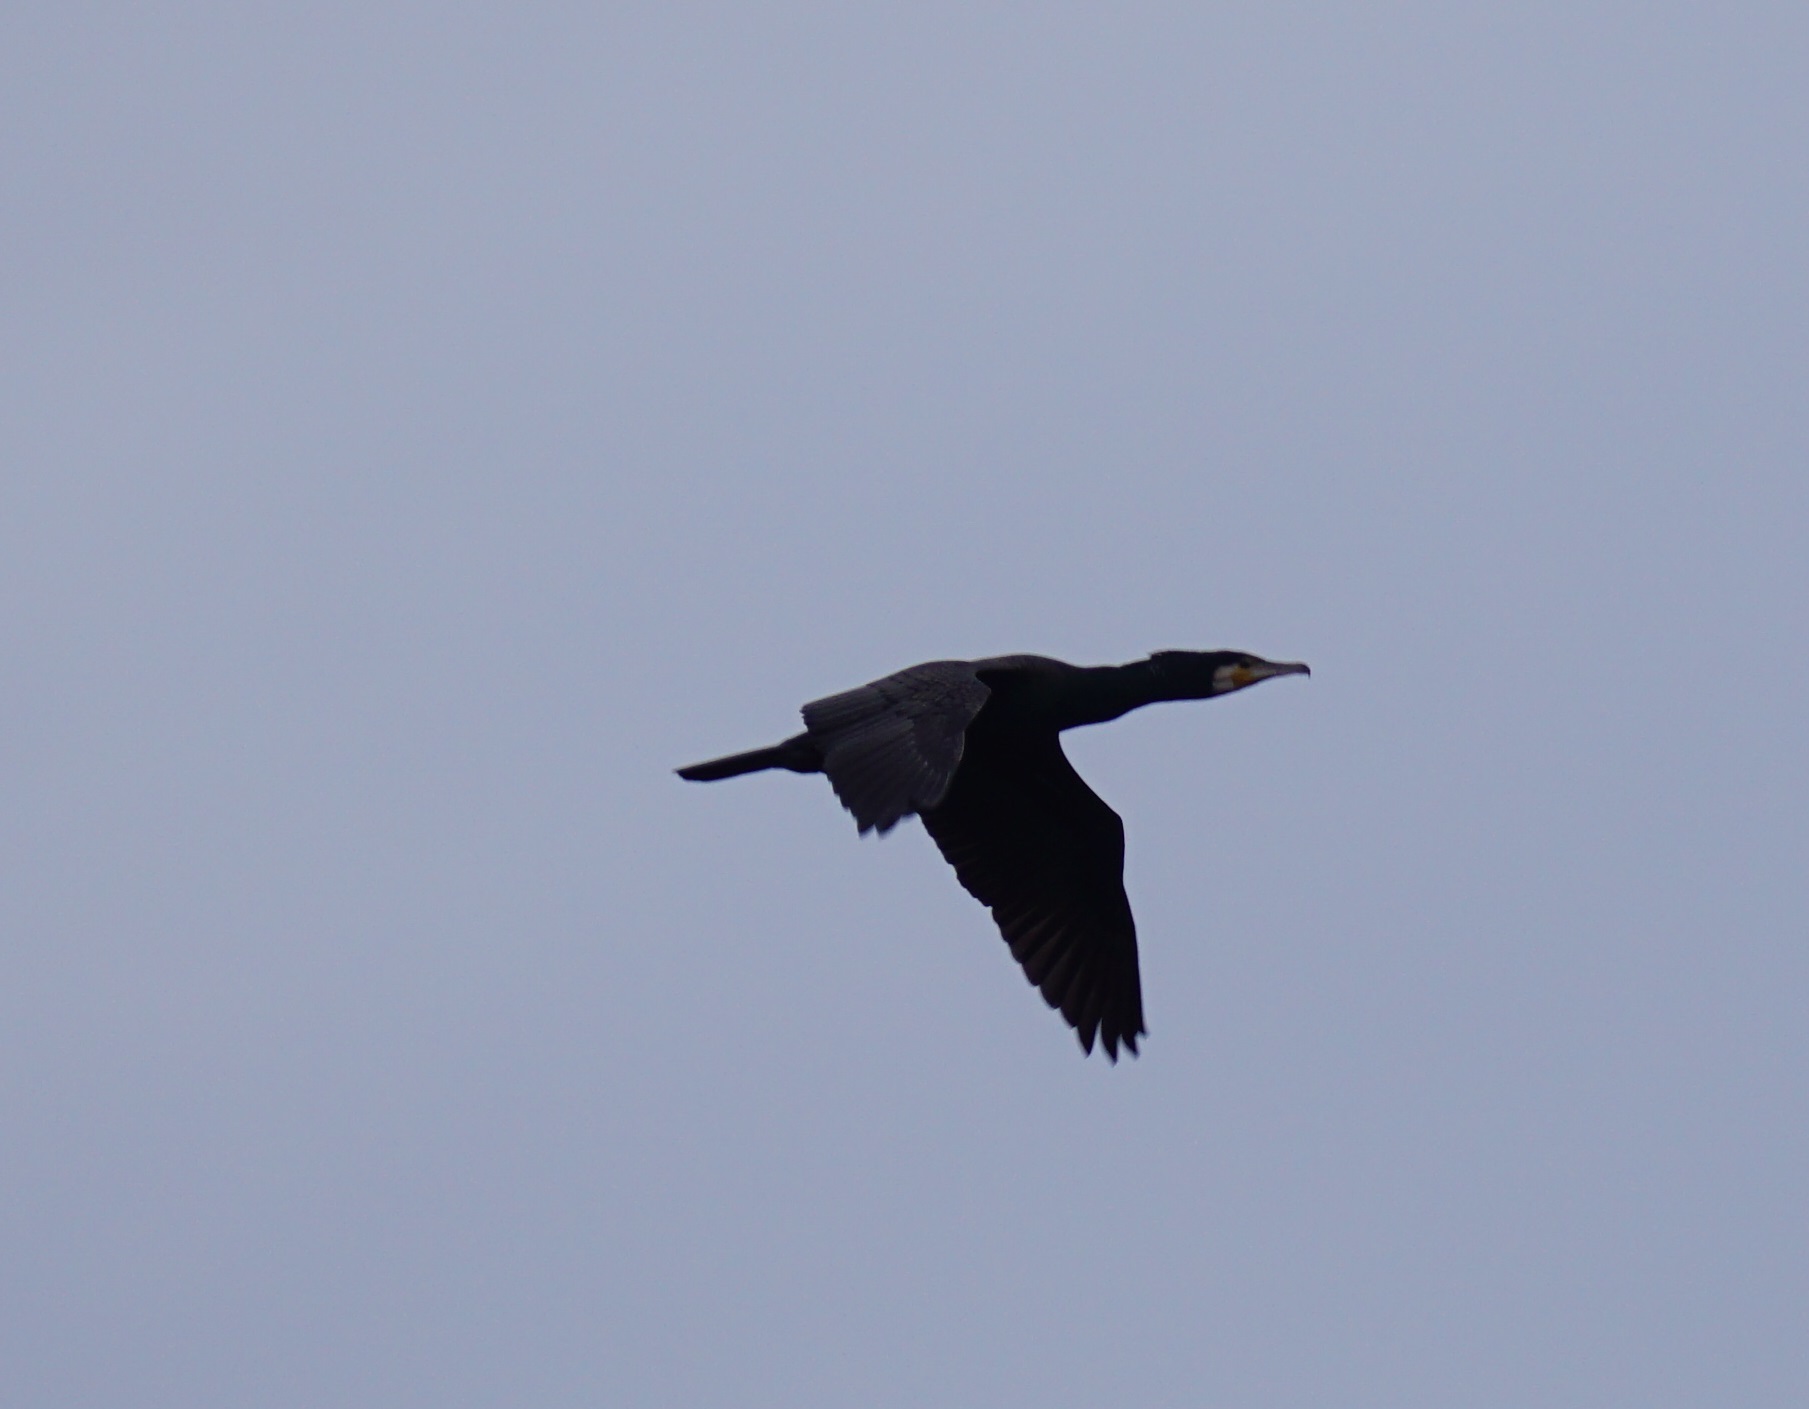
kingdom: Animalia
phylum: Chordata
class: Aves
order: Suliformes
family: Phalacrocoracidae
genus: Phalacrocorax
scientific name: Phalacrocorax carbo
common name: Great cormorant
